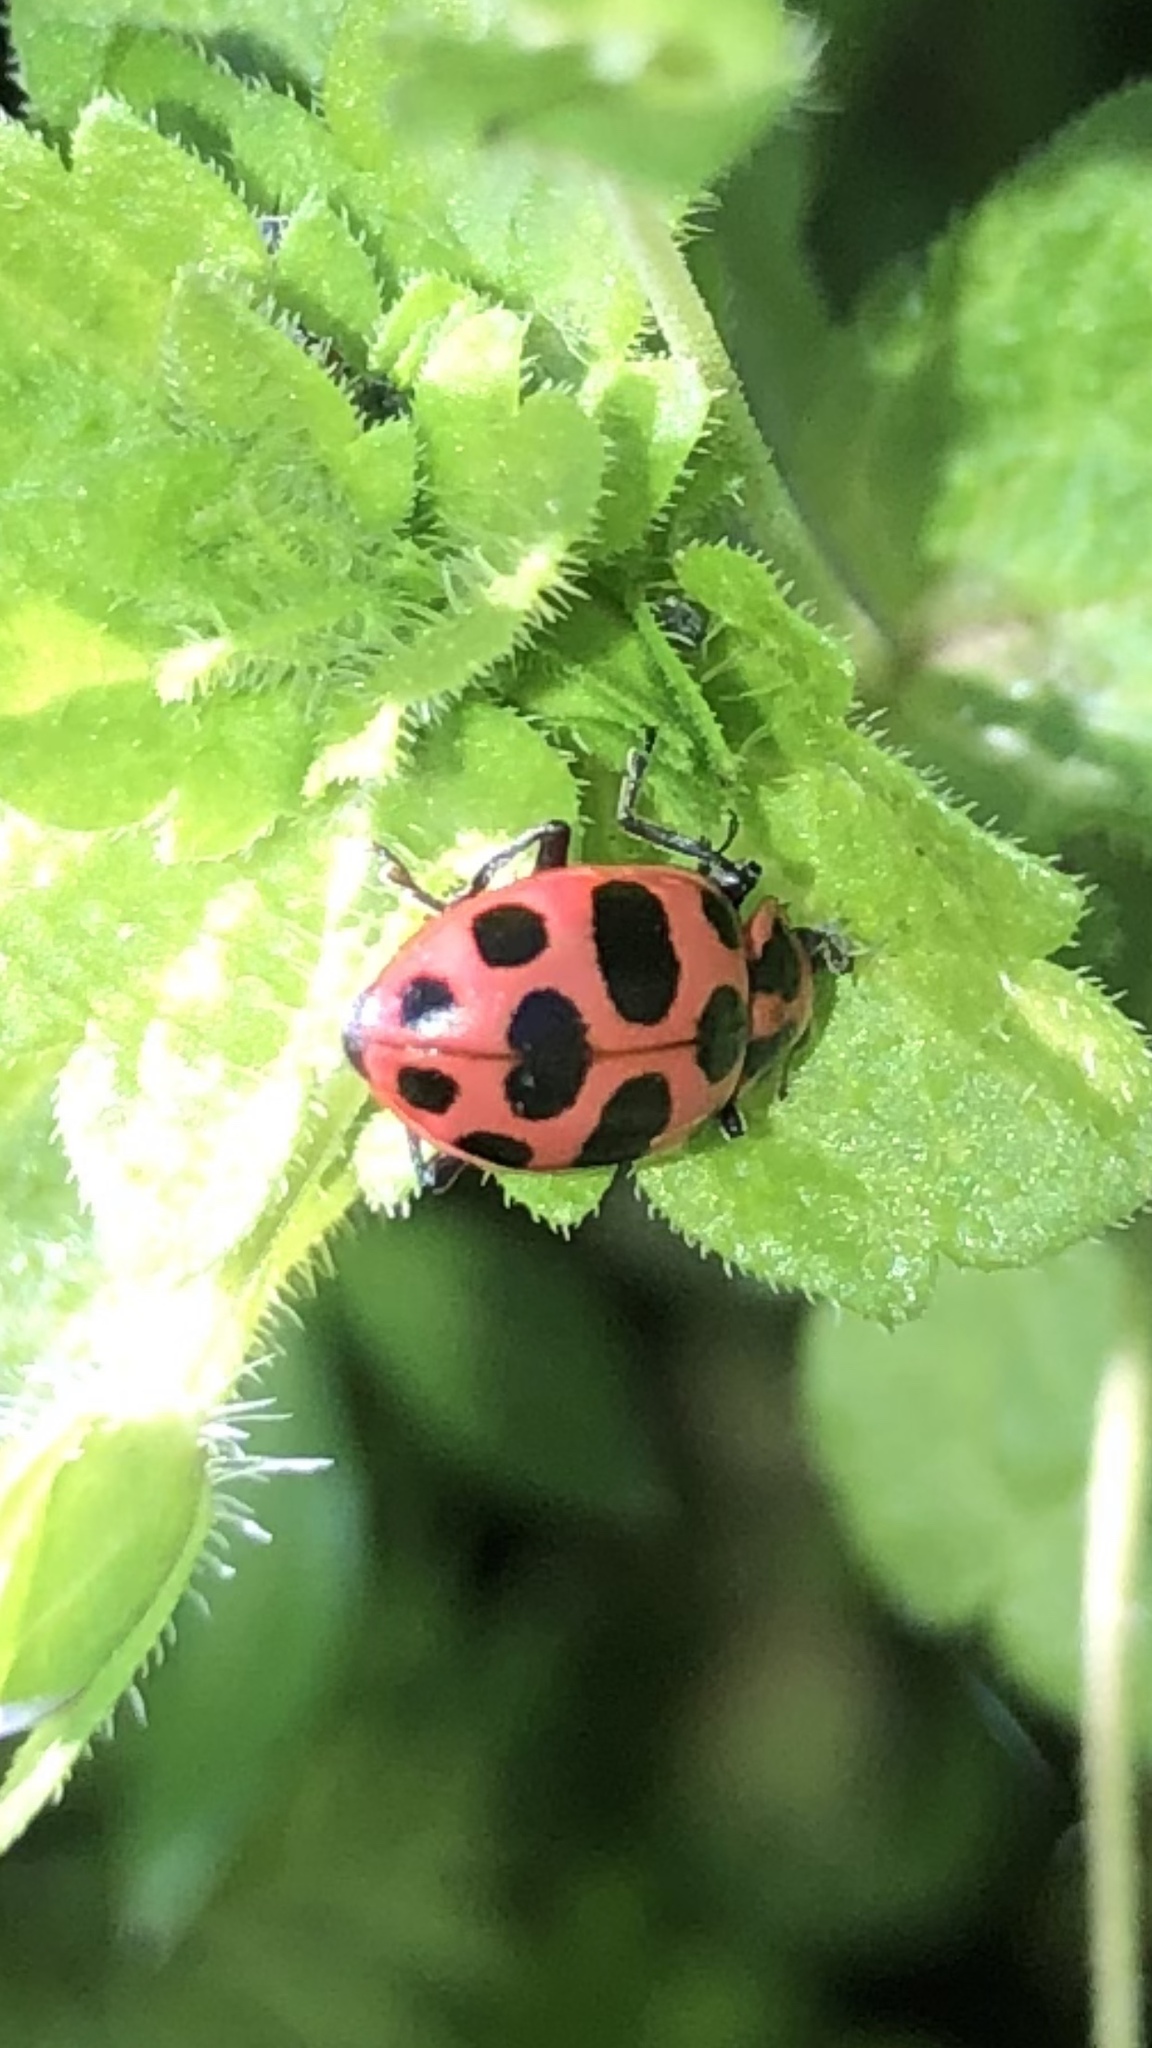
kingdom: Animalia
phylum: Arthropoda
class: Insecta
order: Coleoptera
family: Coccinellidae
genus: Coleomegilla
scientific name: Coleomegilla maculata
